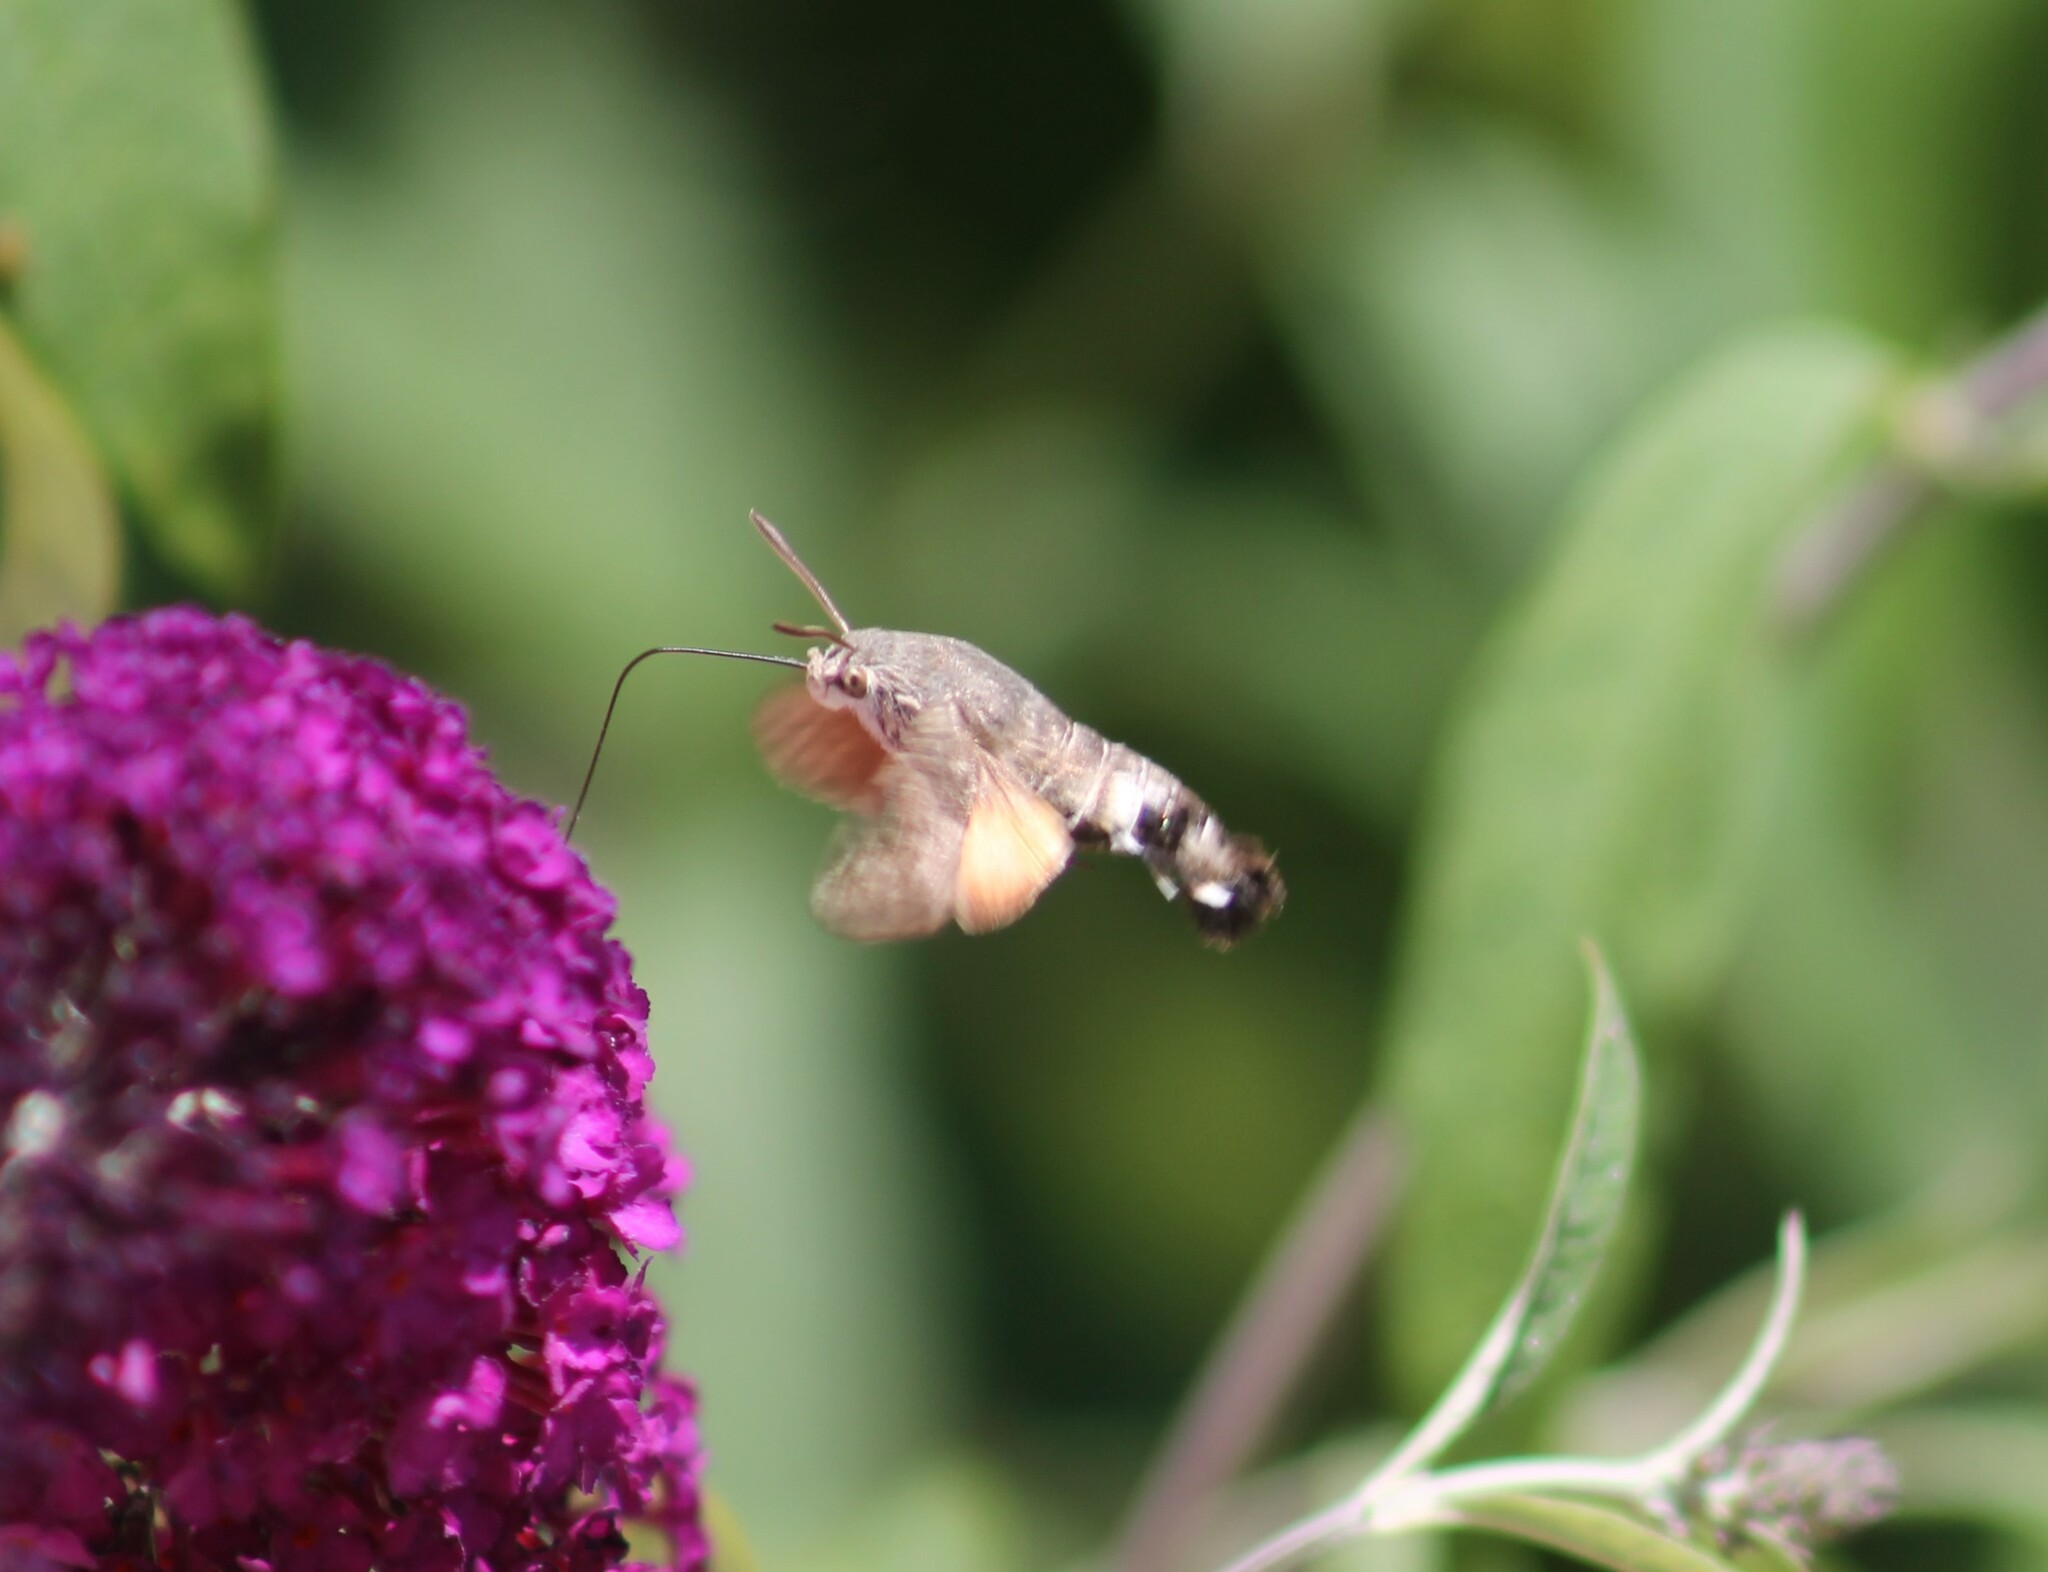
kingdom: Animalia
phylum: Arthropoda
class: Insecta
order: Lepidoptera
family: Sphingidae
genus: Macroglossum
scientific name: Macroglossum stellatarum
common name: Humming-bird hawk-moth
